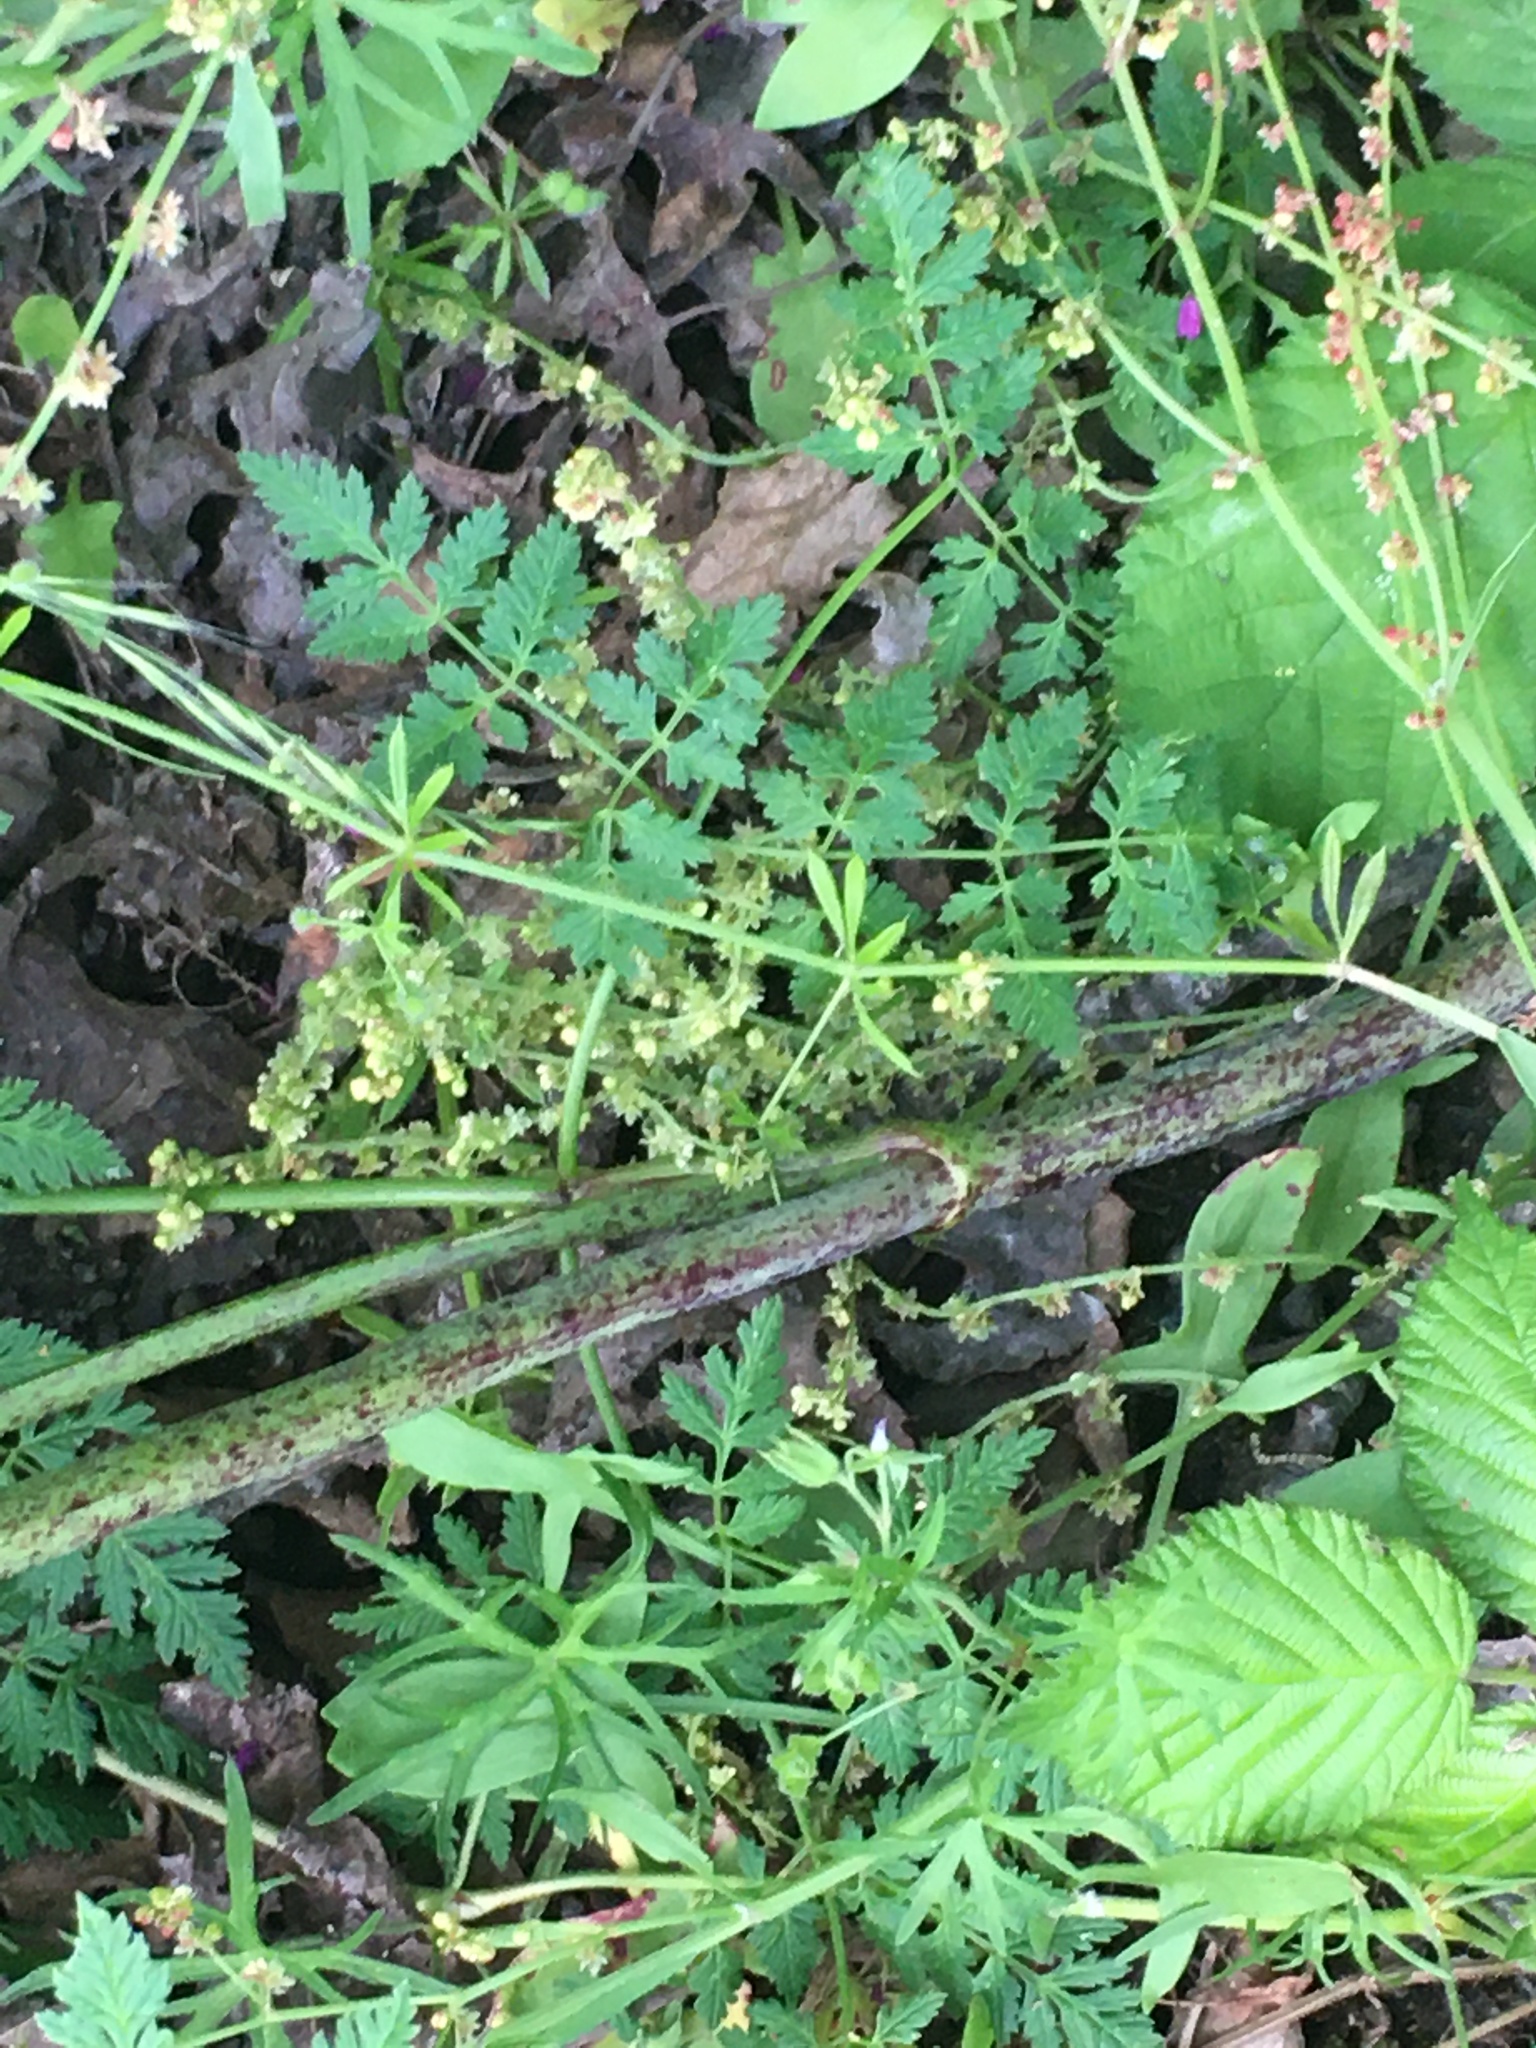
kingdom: Plantae
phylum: Tracheophyta
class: Magnoliopsida
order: Apiales
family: Apiaceae
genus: Conium
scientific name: Conium maculatum
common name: Hemlock
